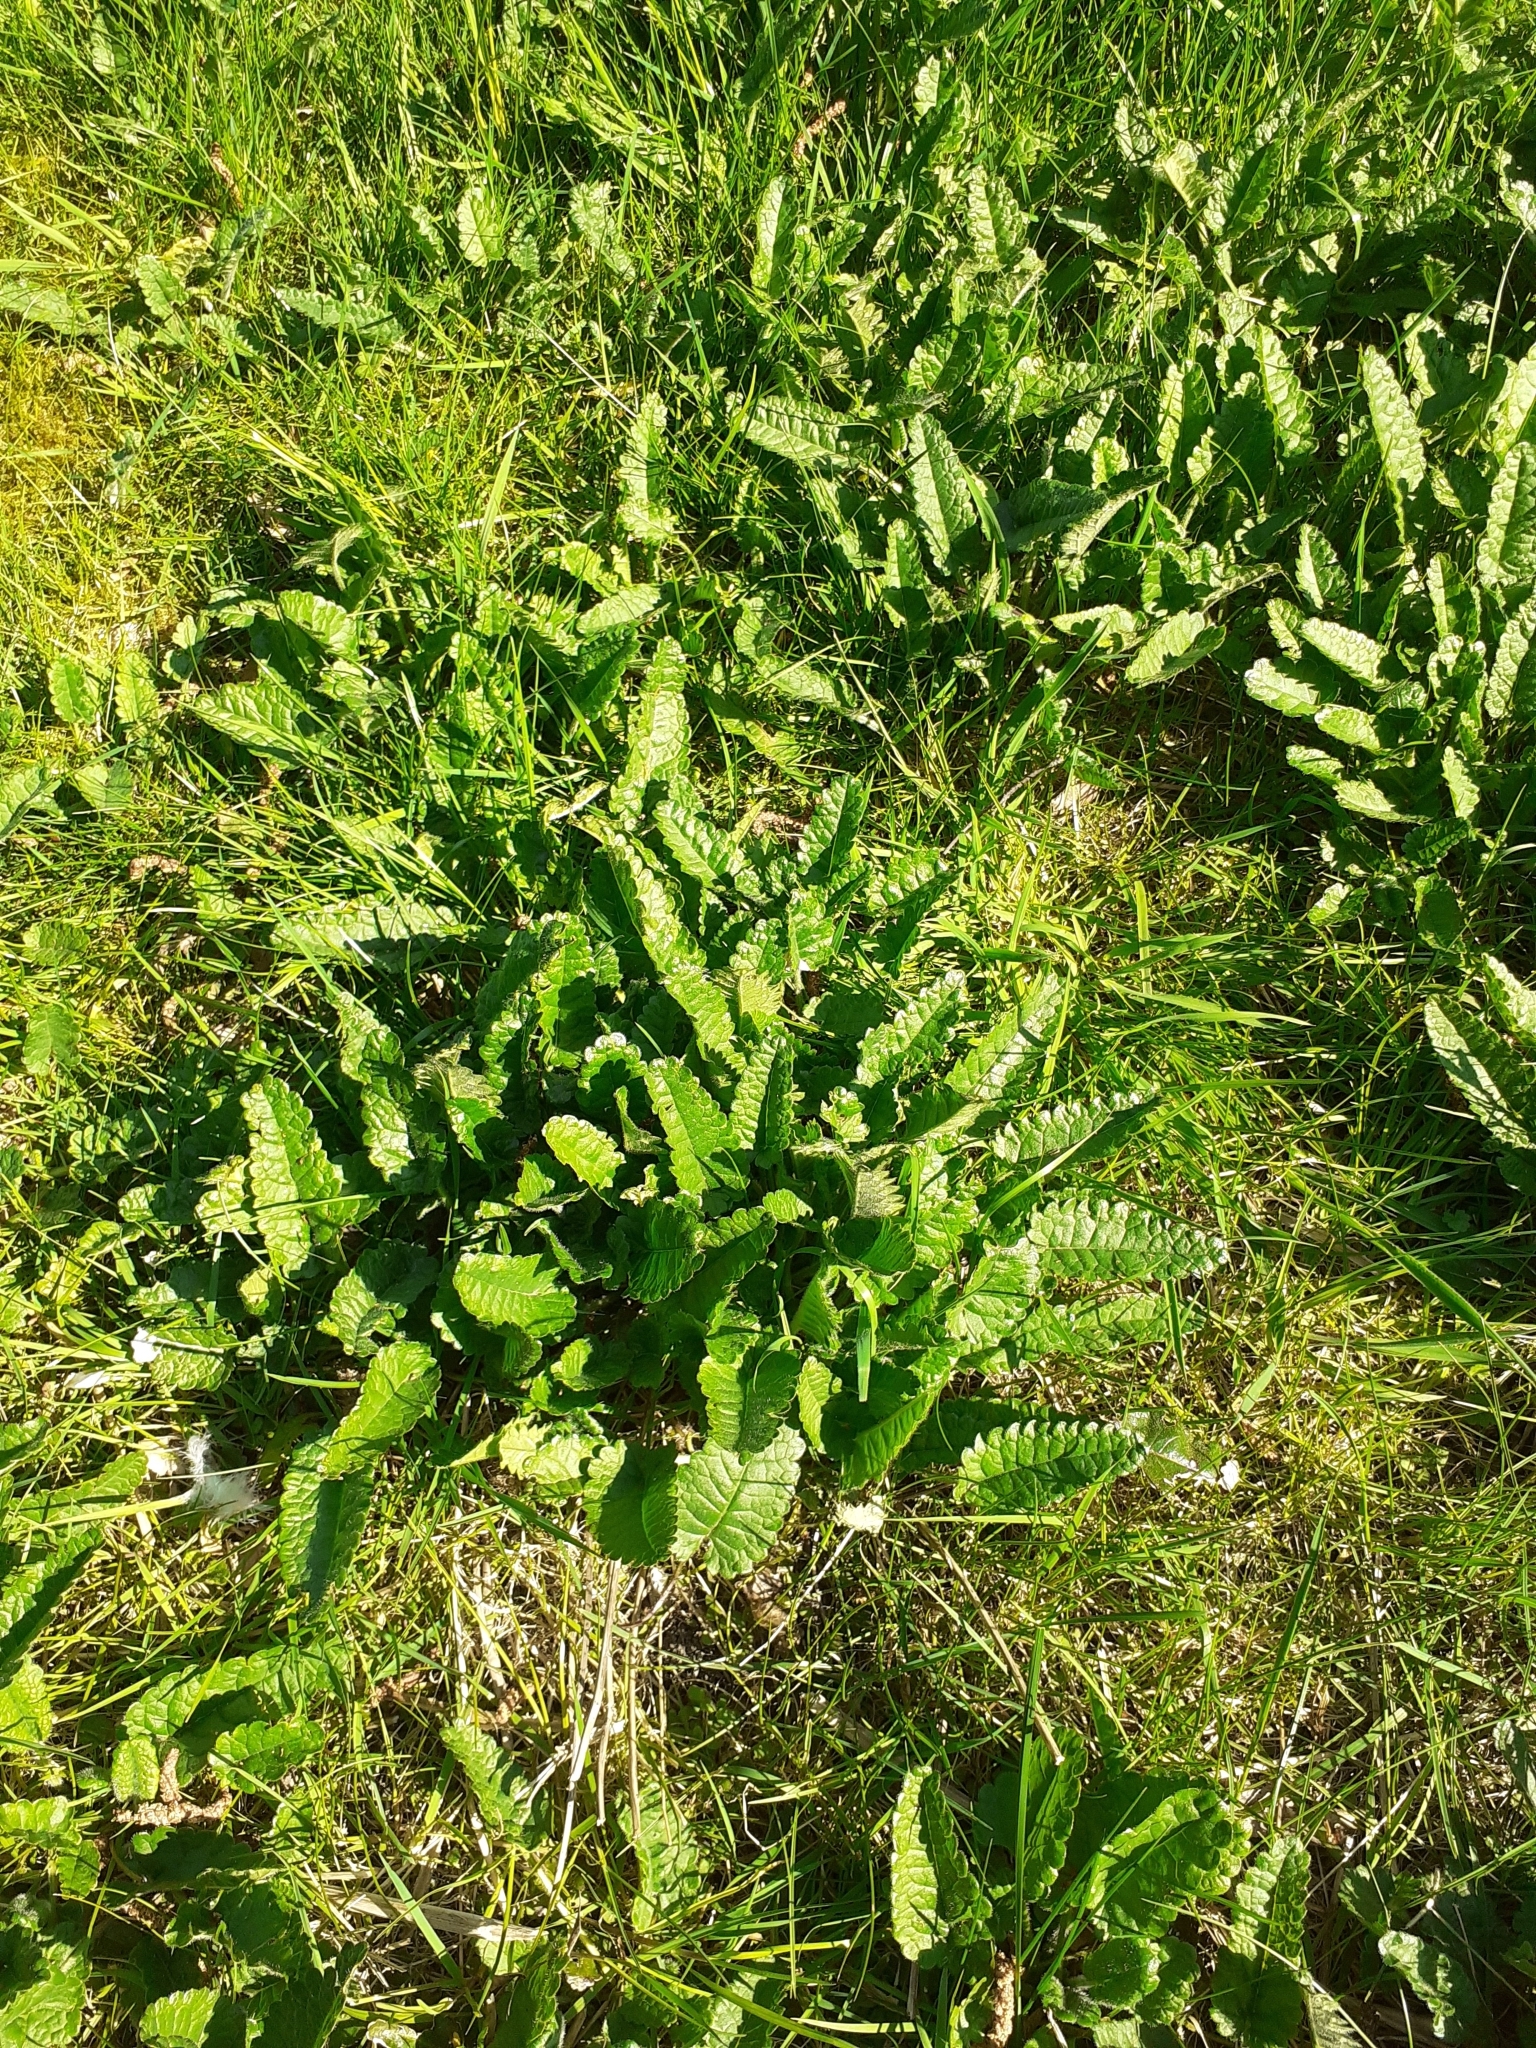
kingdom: Plantae
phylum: Tracheophyta
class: Magnoliopsida
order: Lamiales
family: Lamiaceae
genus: Betonica
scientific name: Betonica officinalis
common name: Bishop's-wort
